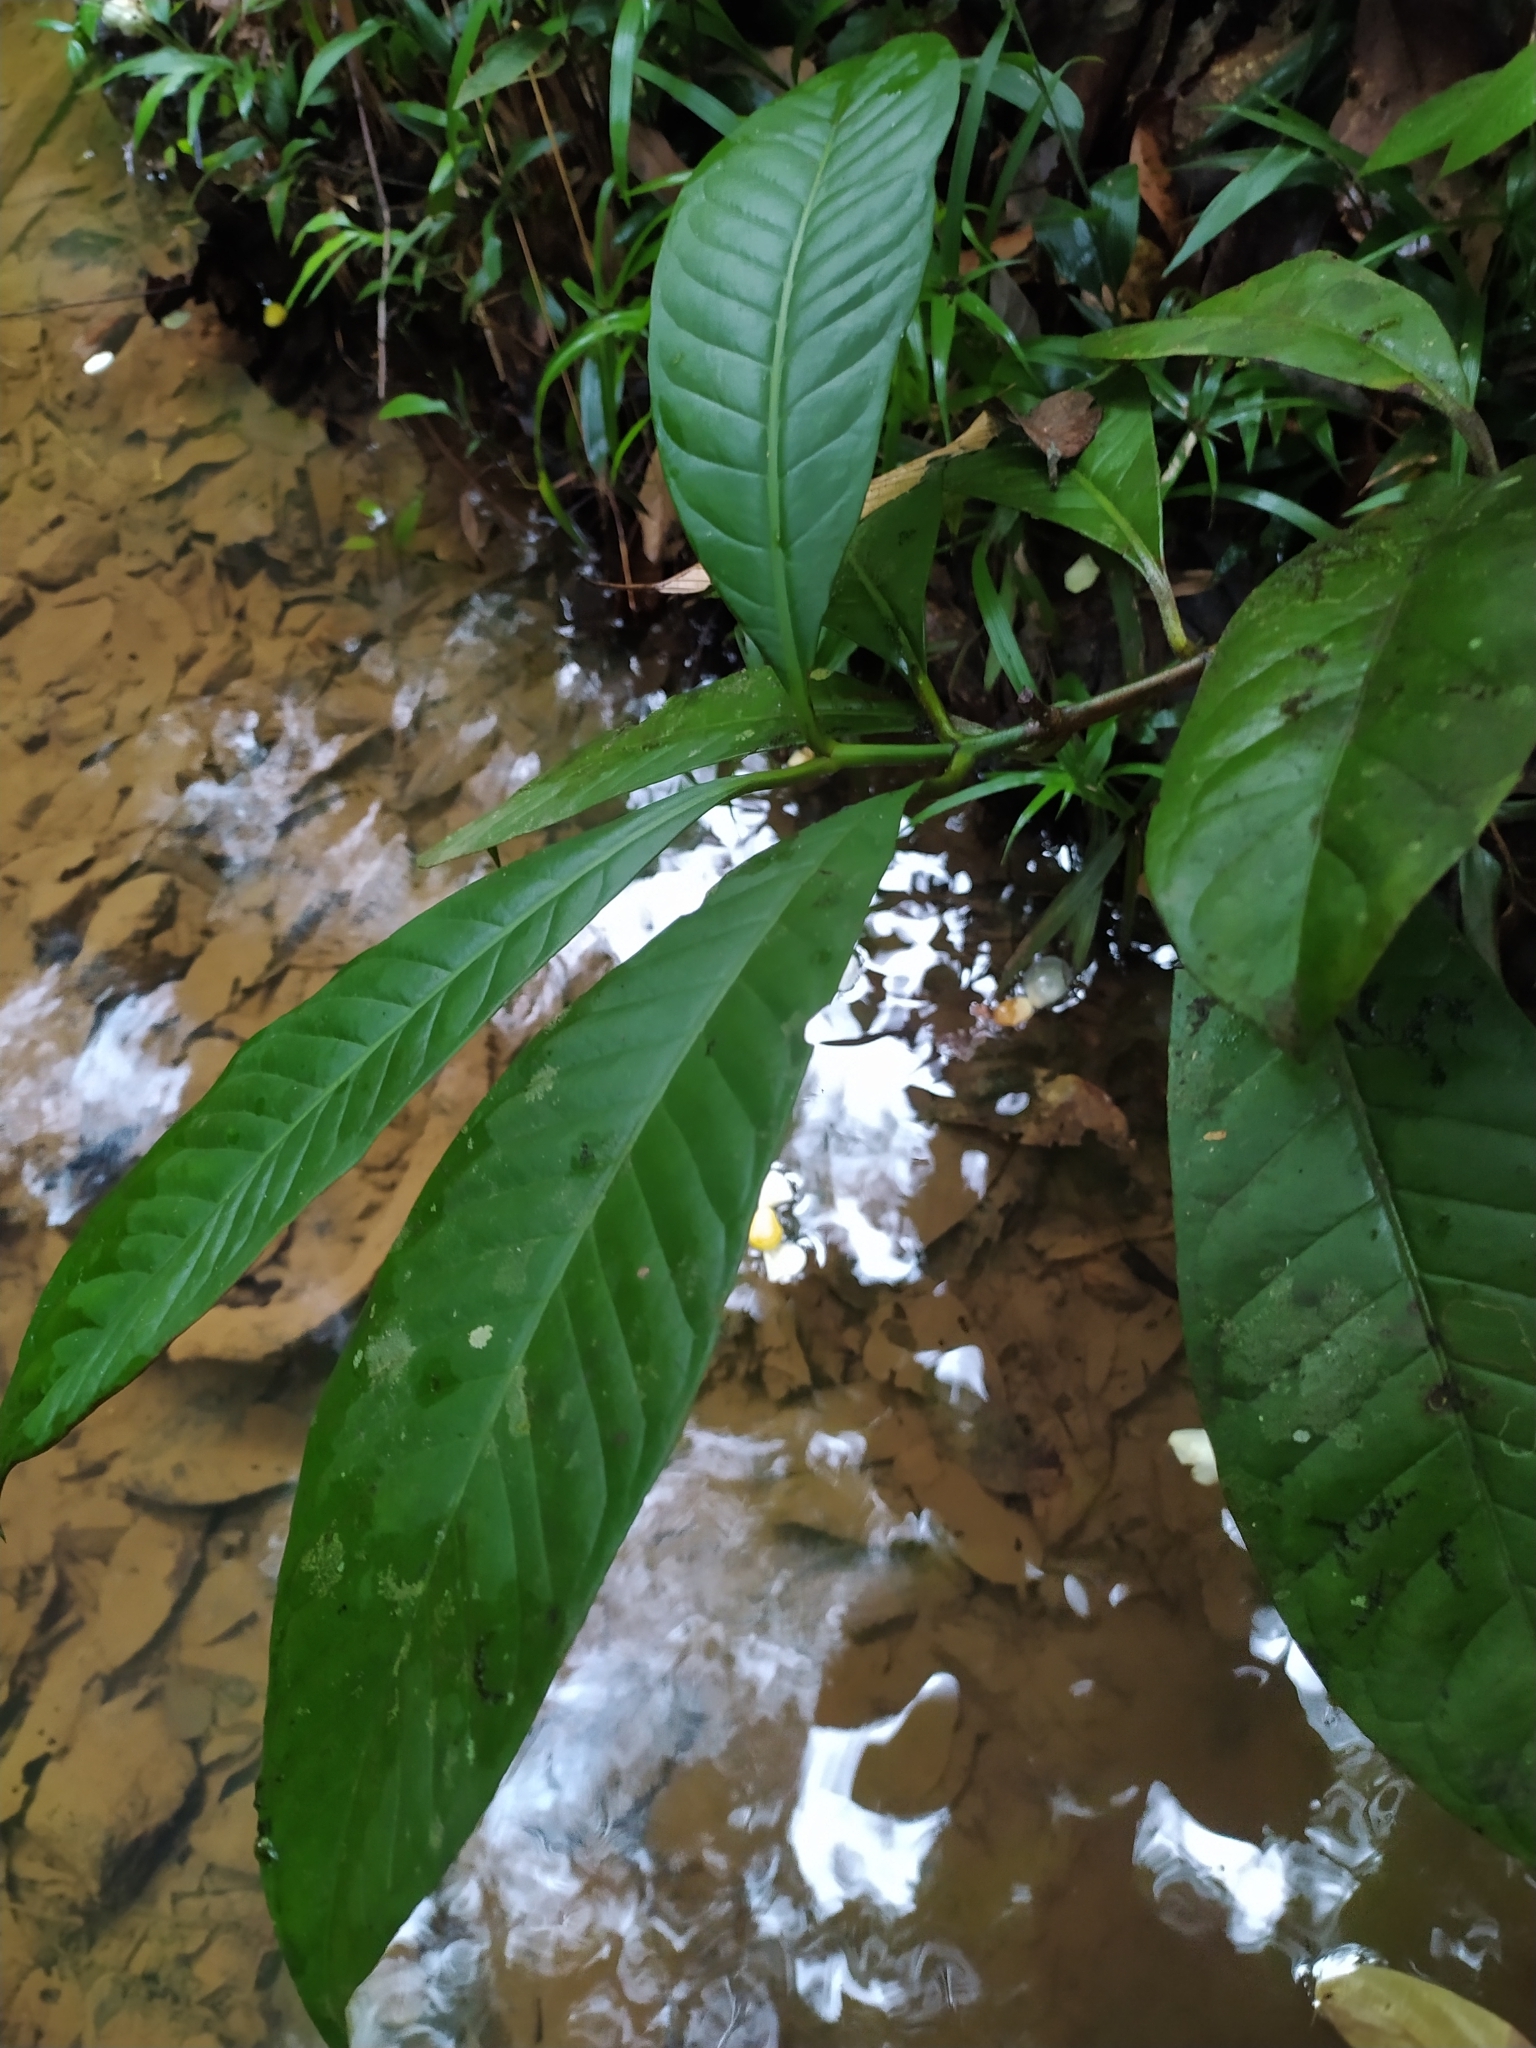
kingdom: Plantae
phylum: Tracheophyta
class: Magnoliopsida
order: Malpighiales
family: Clusiaceae
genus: Chrysochlamys
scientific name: Chrysochlamys membranacea
